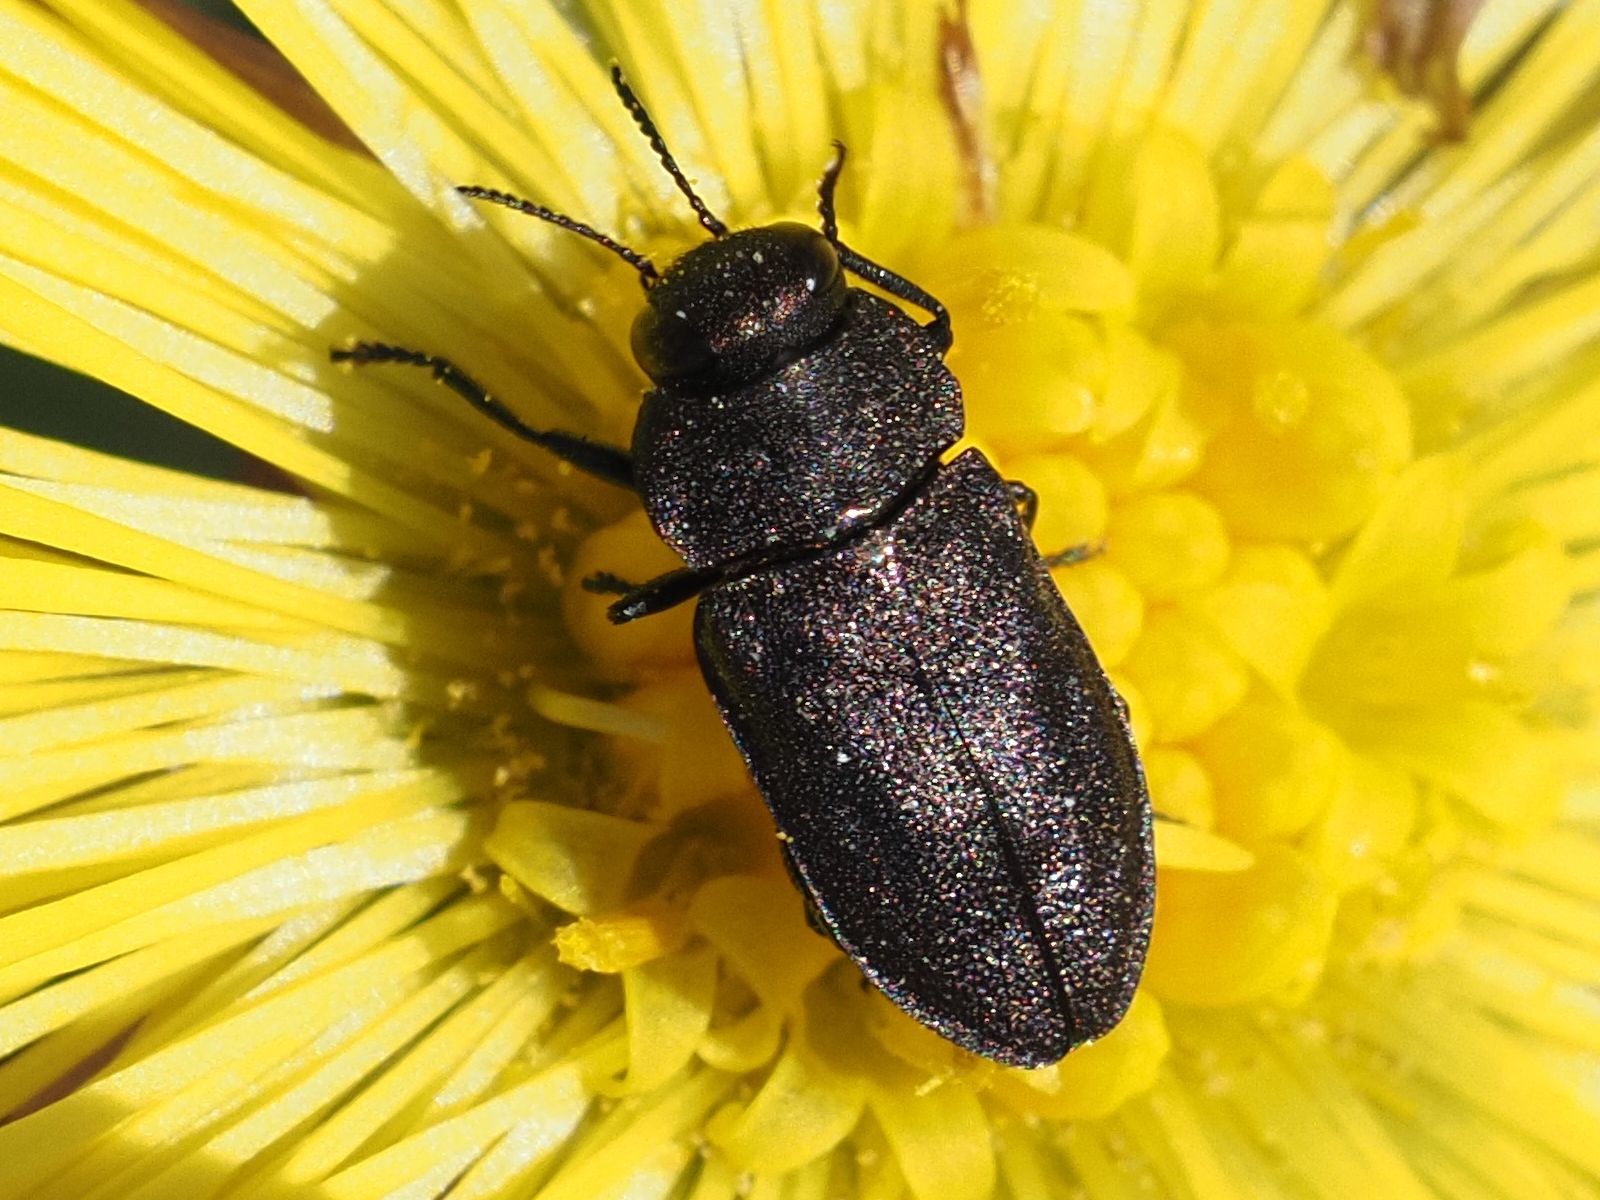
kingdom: Animalia
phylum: Arthropoda
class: Insecta
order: Coleoptera
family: Buprestidae
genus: Anthaxia
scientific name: Anthaxia helvetica
